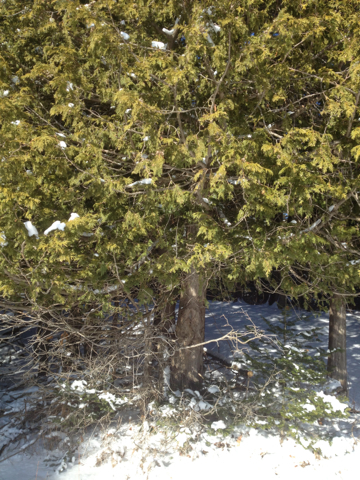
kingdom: Plantae
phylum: Tracheophyta
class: Pinopsida
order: Pinales
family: Cupressaceae
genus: Thuja
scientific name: Thuja occidentalis
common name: Northern white-cedar
